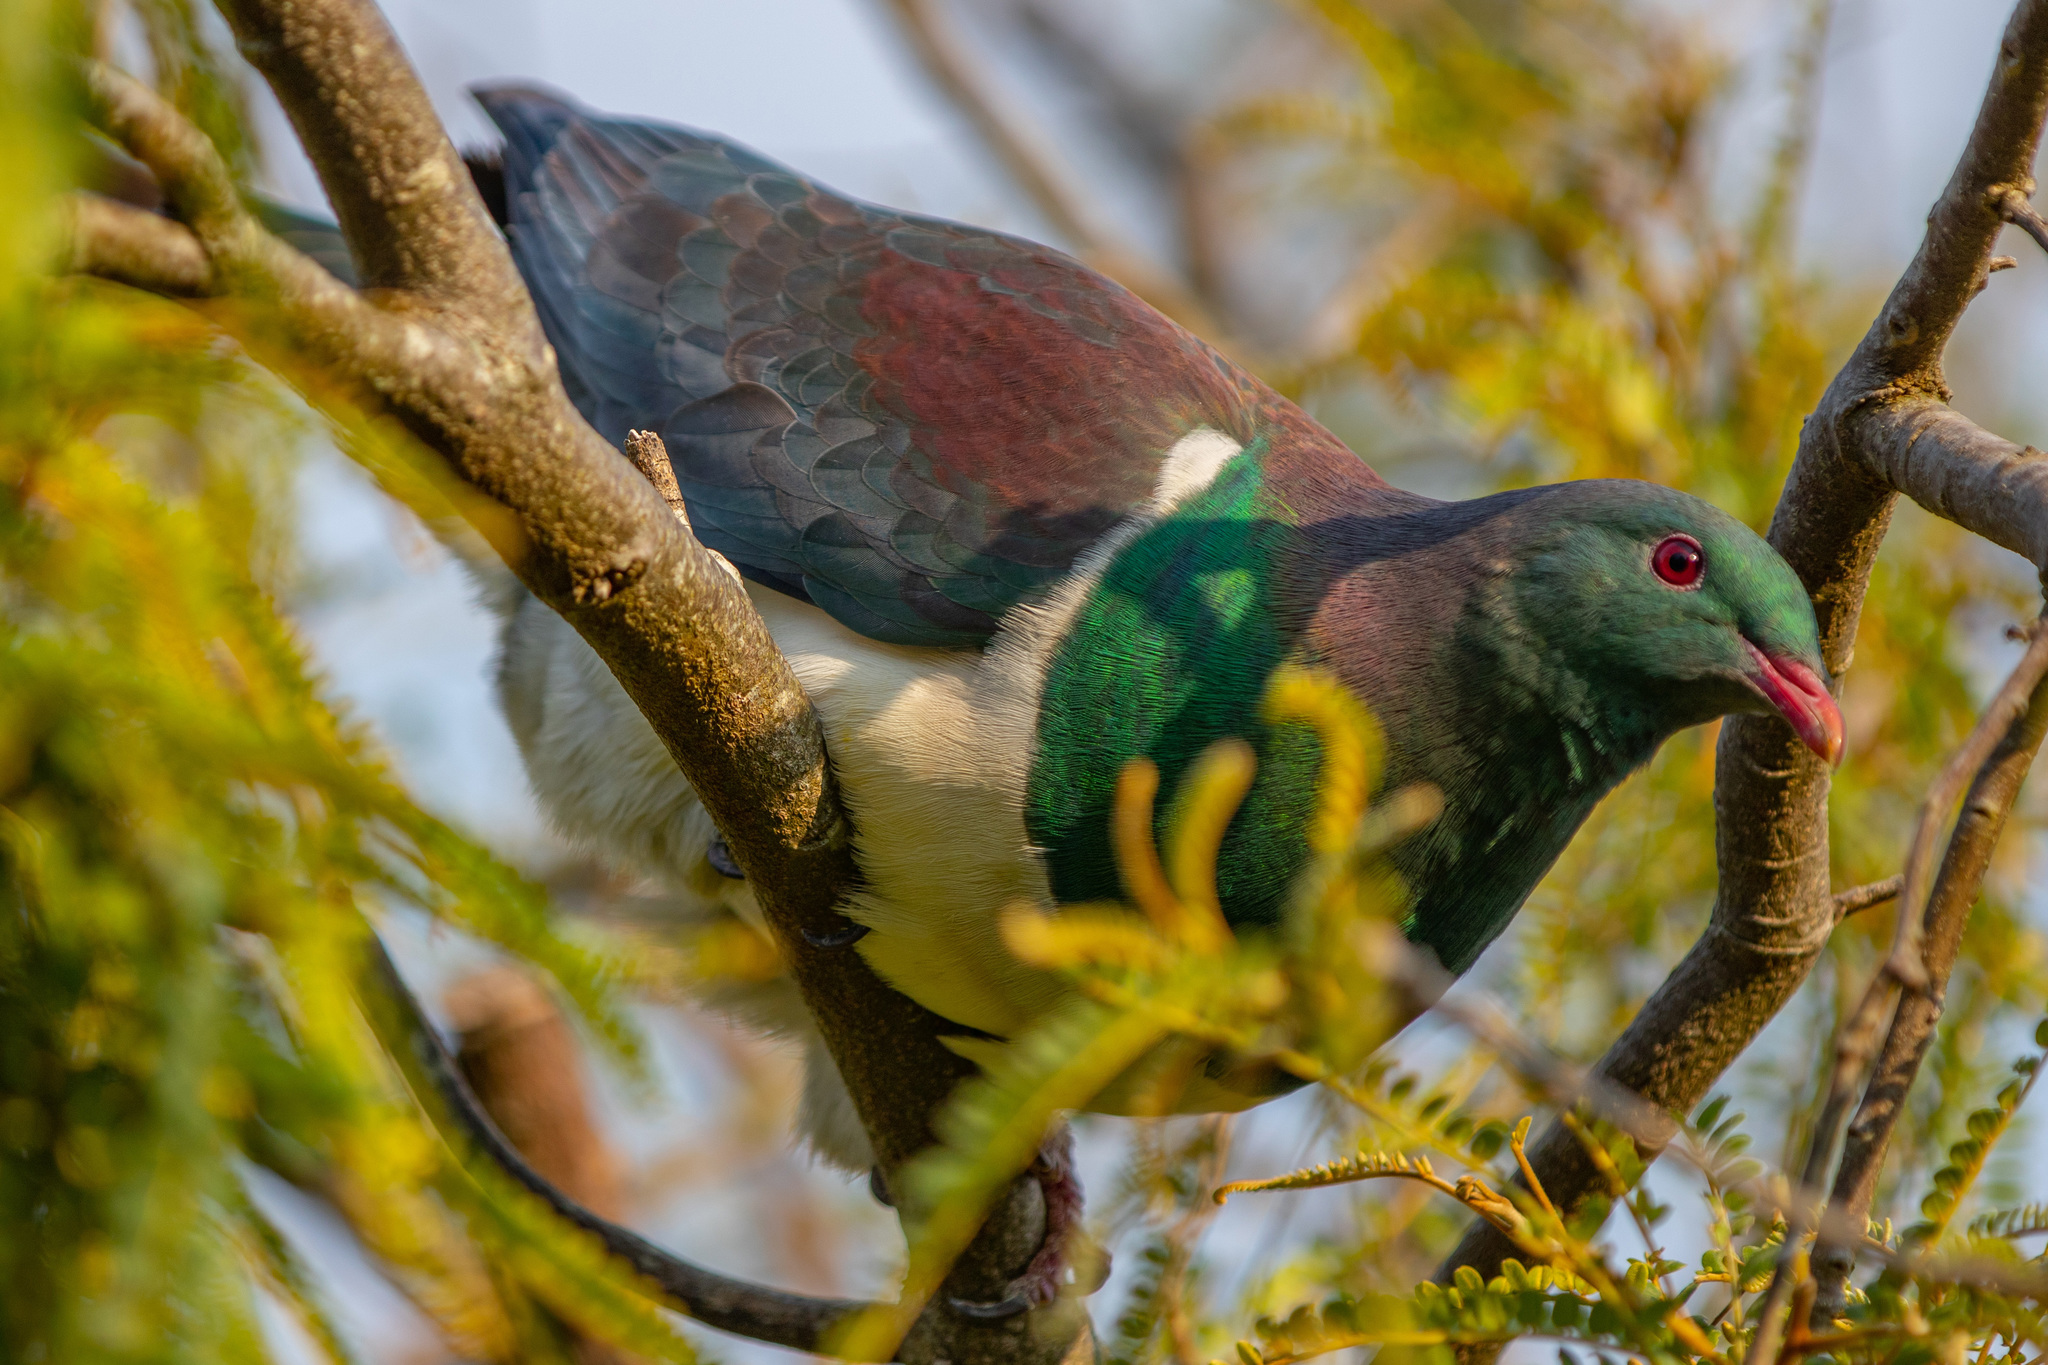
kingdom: Animalia
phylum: Chordata
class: Aves
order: Columbiformes
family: Columbidae
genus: Hemiphaga
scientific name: Hemiphaga novaeseelandiae
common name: New zealand pigeon
